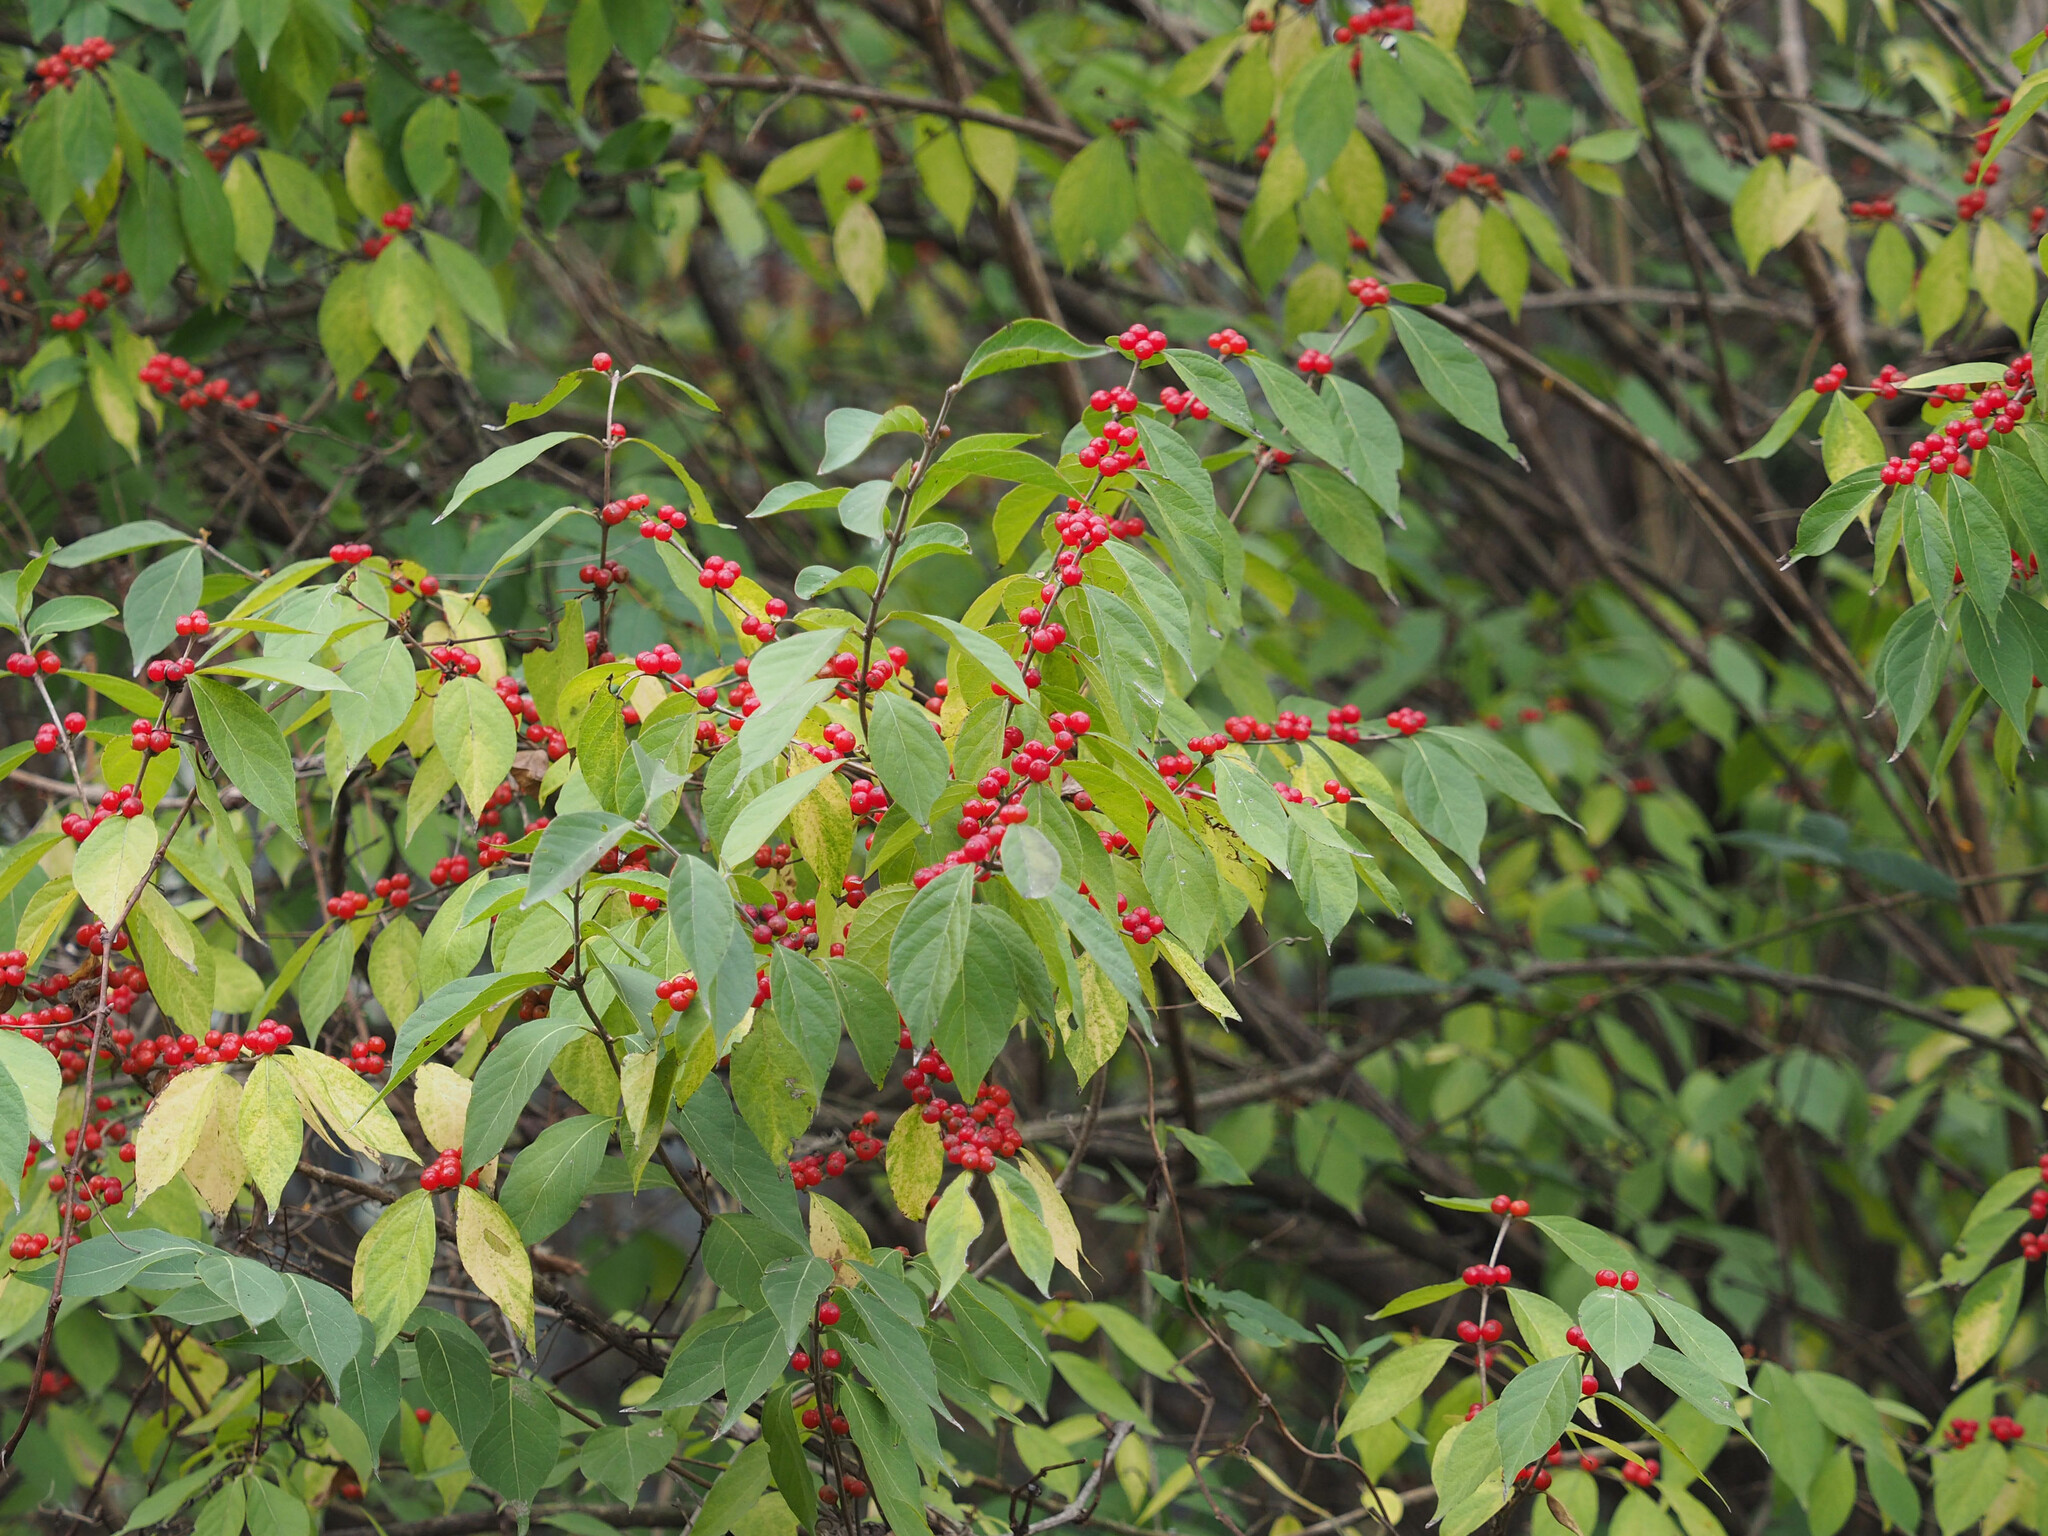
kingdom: Plantae
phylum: Tracheophyta
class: Magnoliopsida
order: Dipsacales
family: Caprifoliaceae
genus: Lonicera
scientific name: Lonicera maackii
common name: Amur honeysuckle
